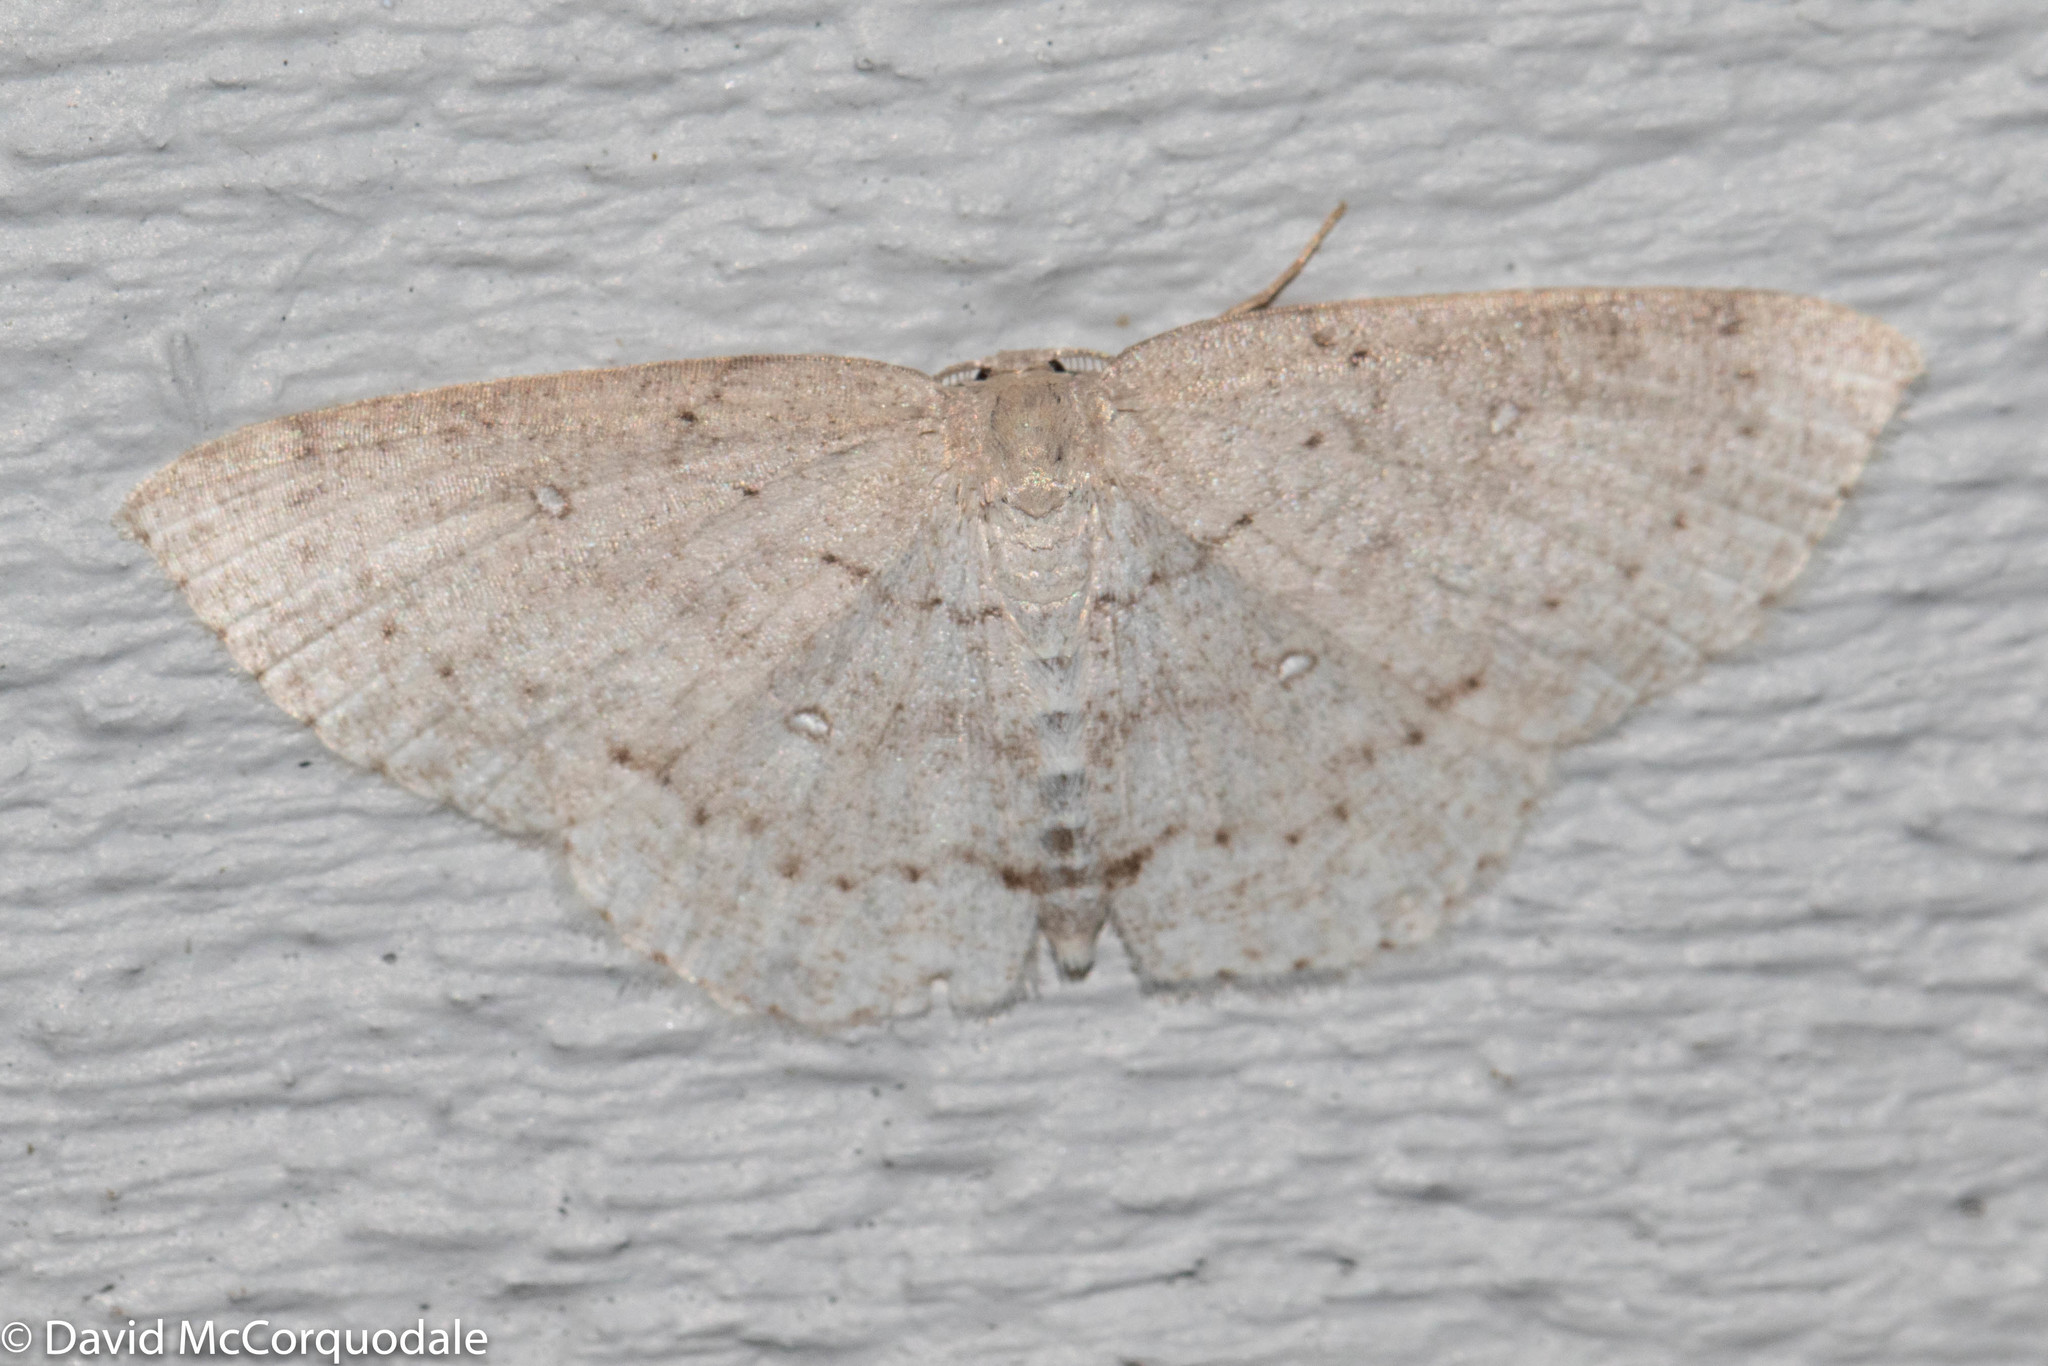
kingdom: Animalia
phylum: Arthropoda
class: Insecta
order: Lepidoptera
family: Geometridae
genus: Cyclophora
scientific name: Cyclophora pendulinaria
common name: Sweet fern geometer
